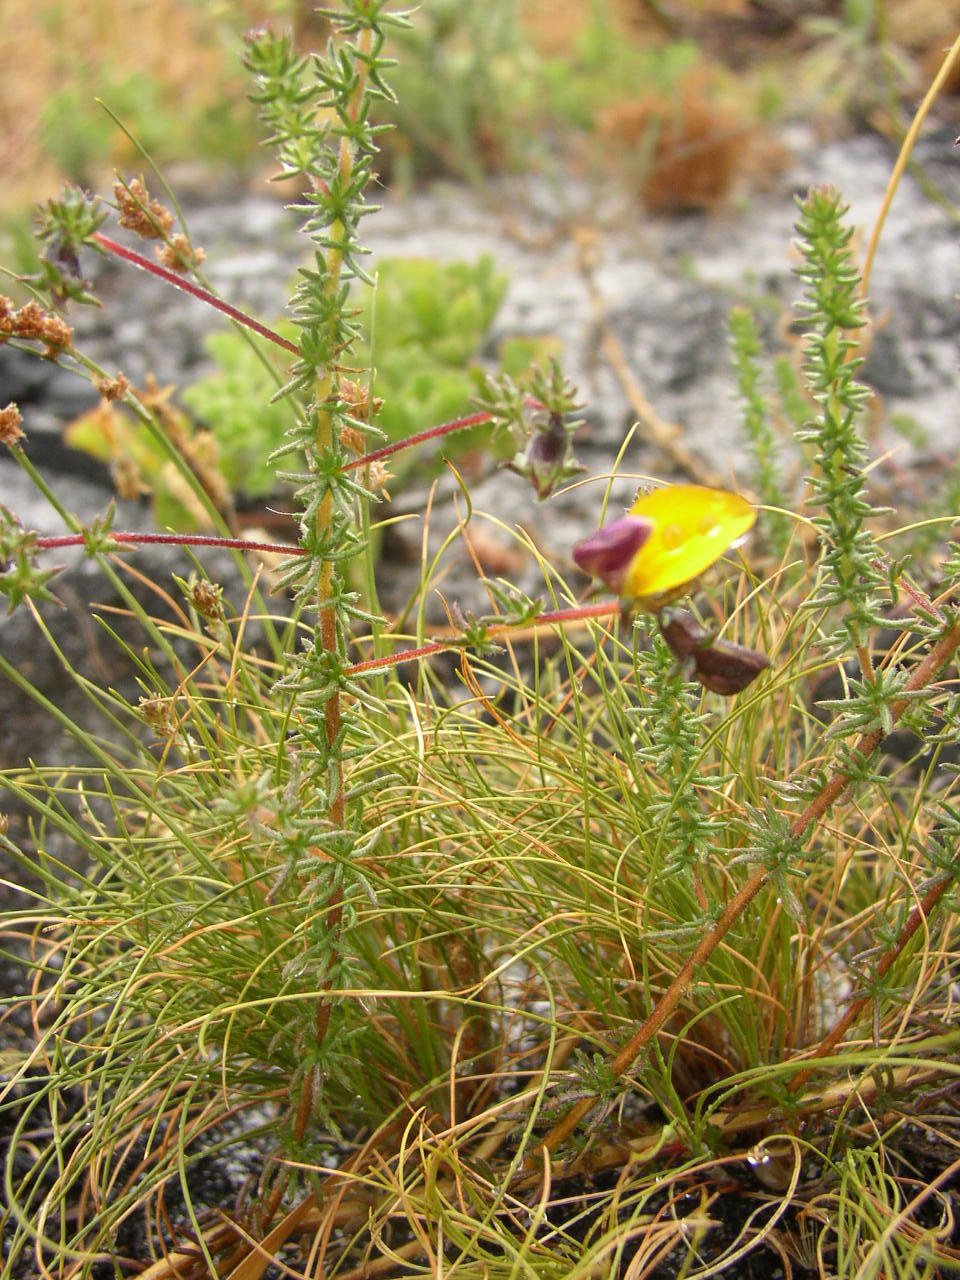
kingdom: Plantae
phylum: Tracheophyta
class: Magnoliopsida
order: Fabales
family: Fabaceae
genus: Aspalathus
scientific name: Aspalathus retroflexa
